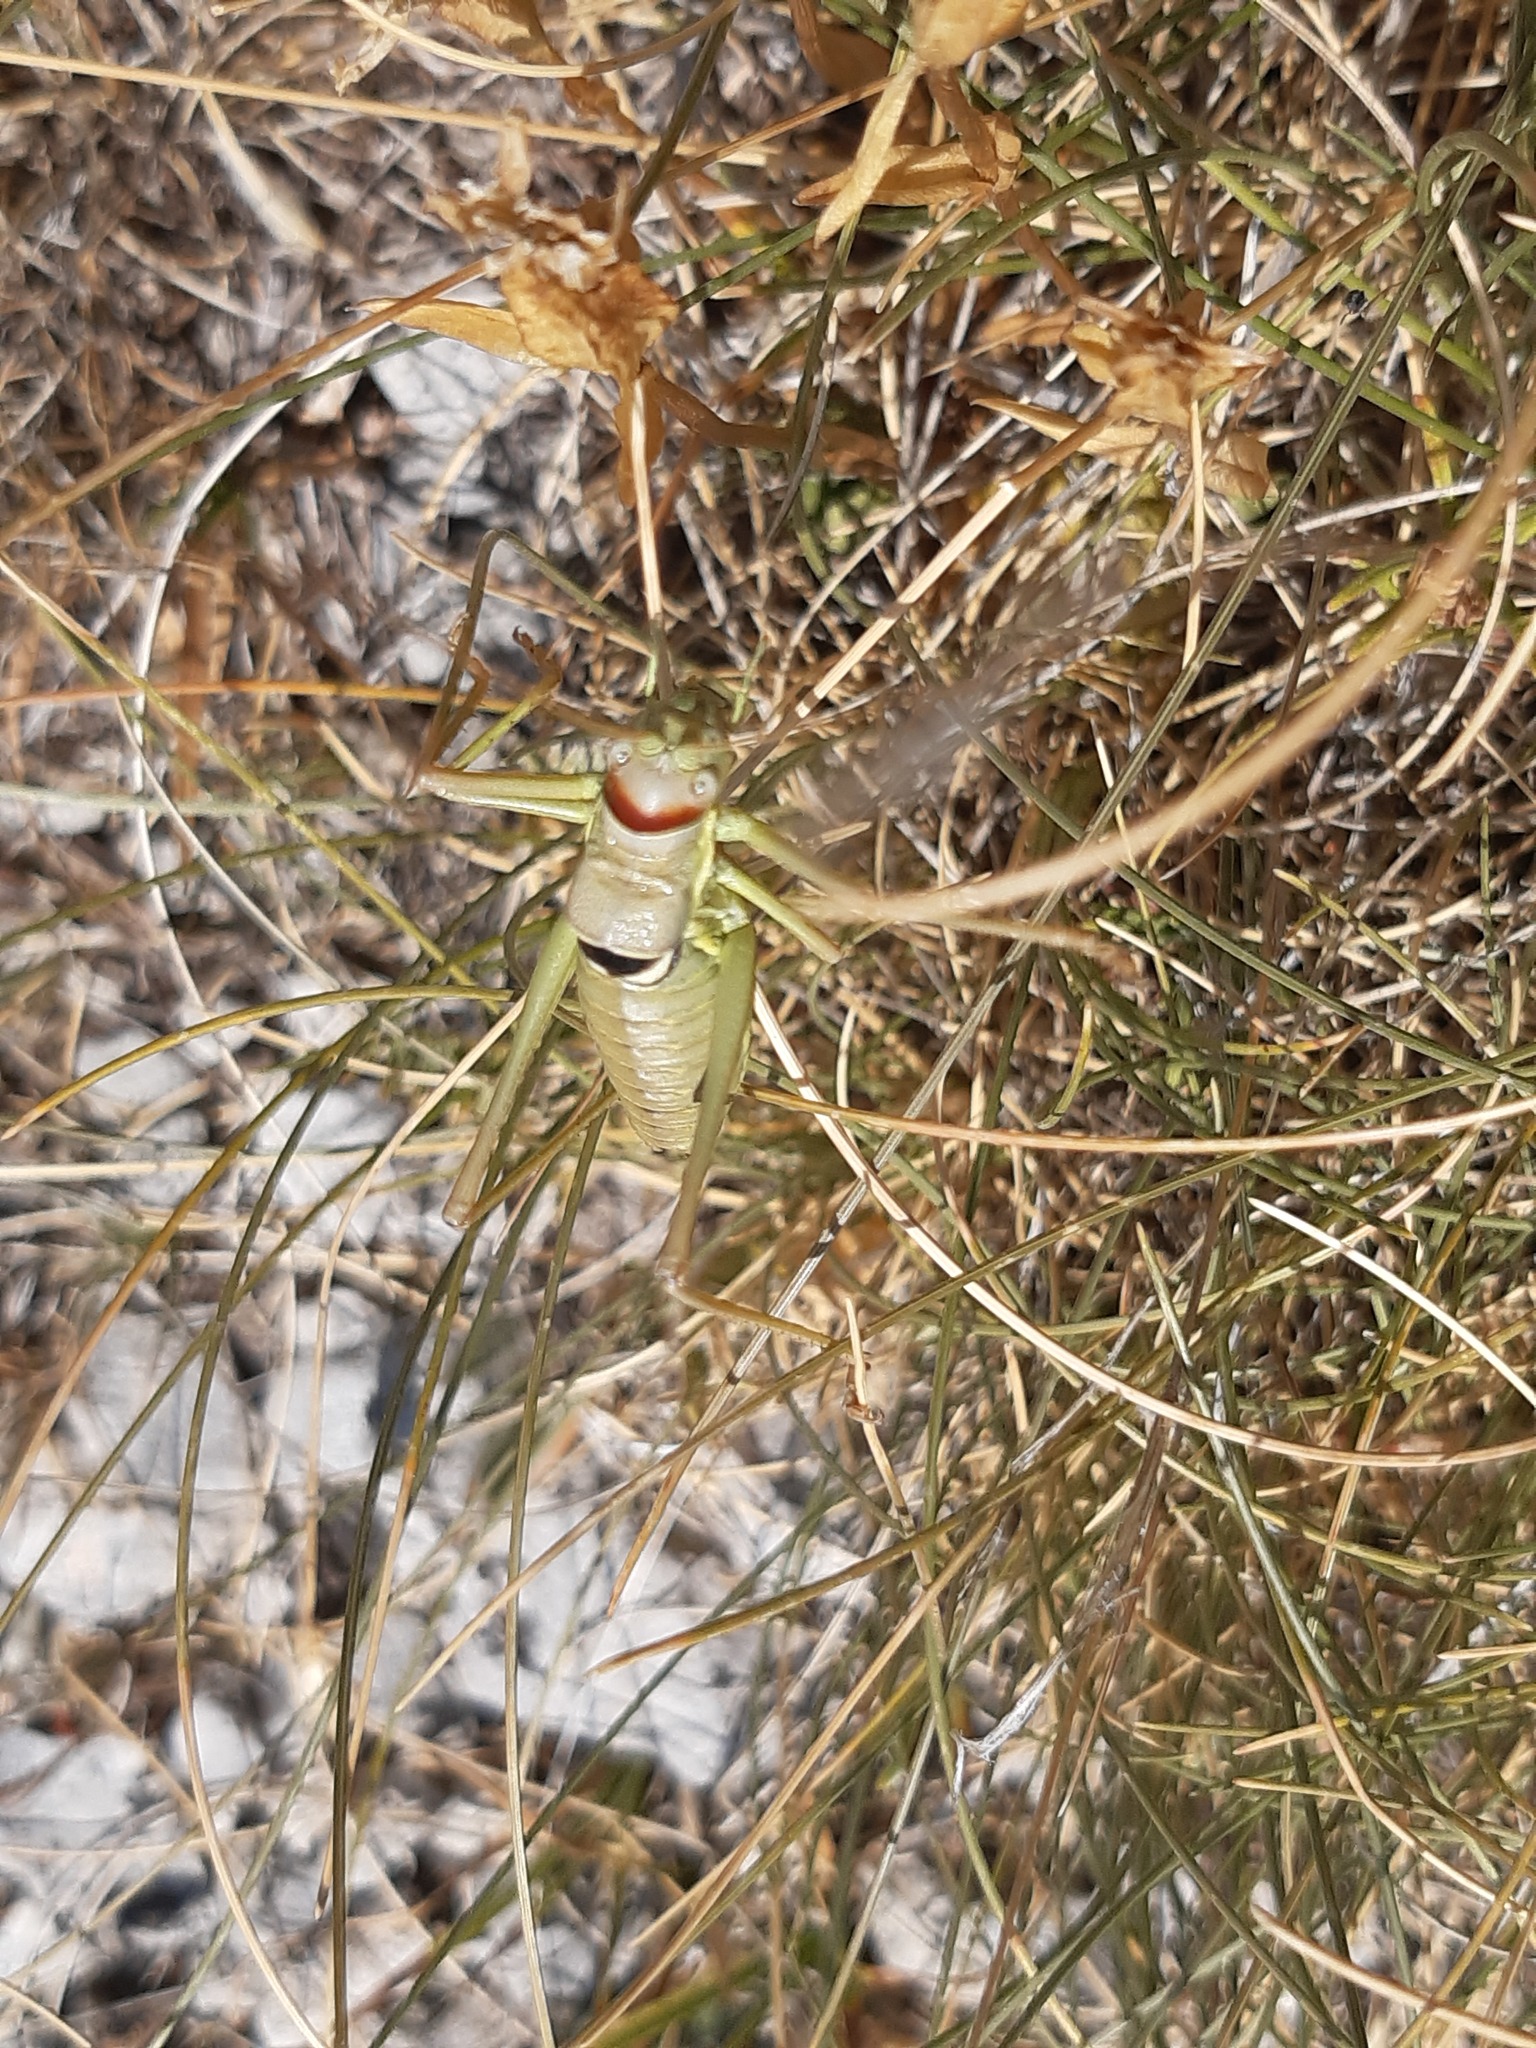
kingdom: Animalia
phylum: Arthropoda
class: Insecta
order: Orthoptera
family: Tettigoniidae
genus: Dinarippiger
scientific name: Dinarippiger discoidalis
